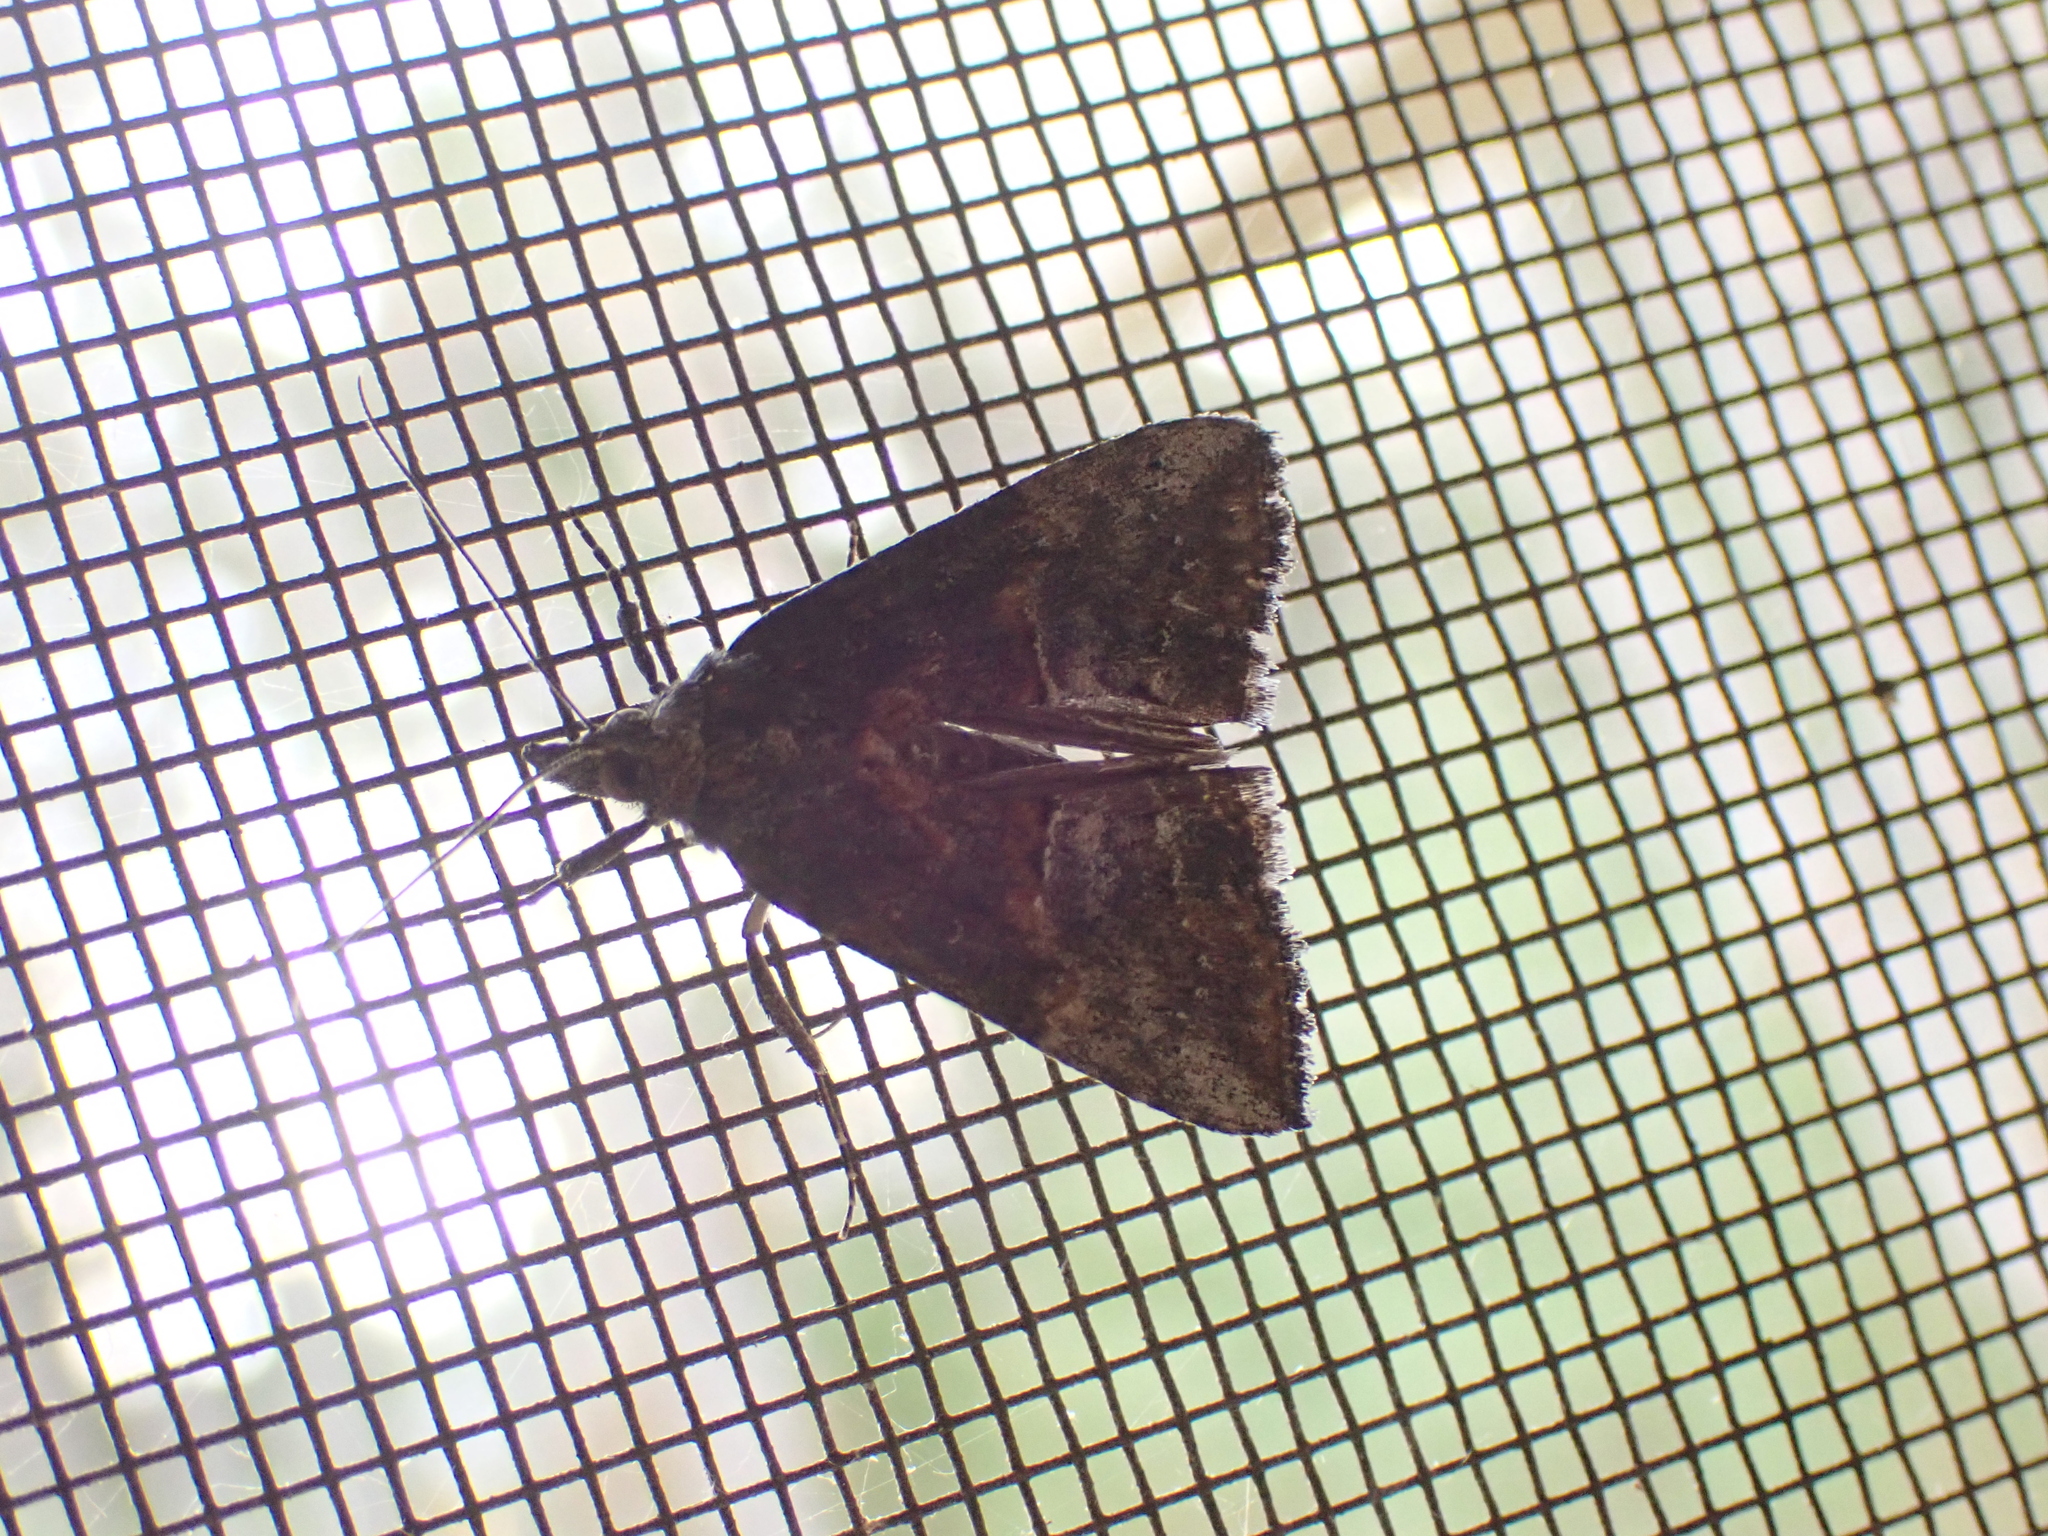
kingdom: Animalia
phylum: Arthropoda
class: Insecta
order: Lepidoptera
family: Erebidae
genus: Hypena
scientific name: Hypena scabra
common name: Green cloverworm
